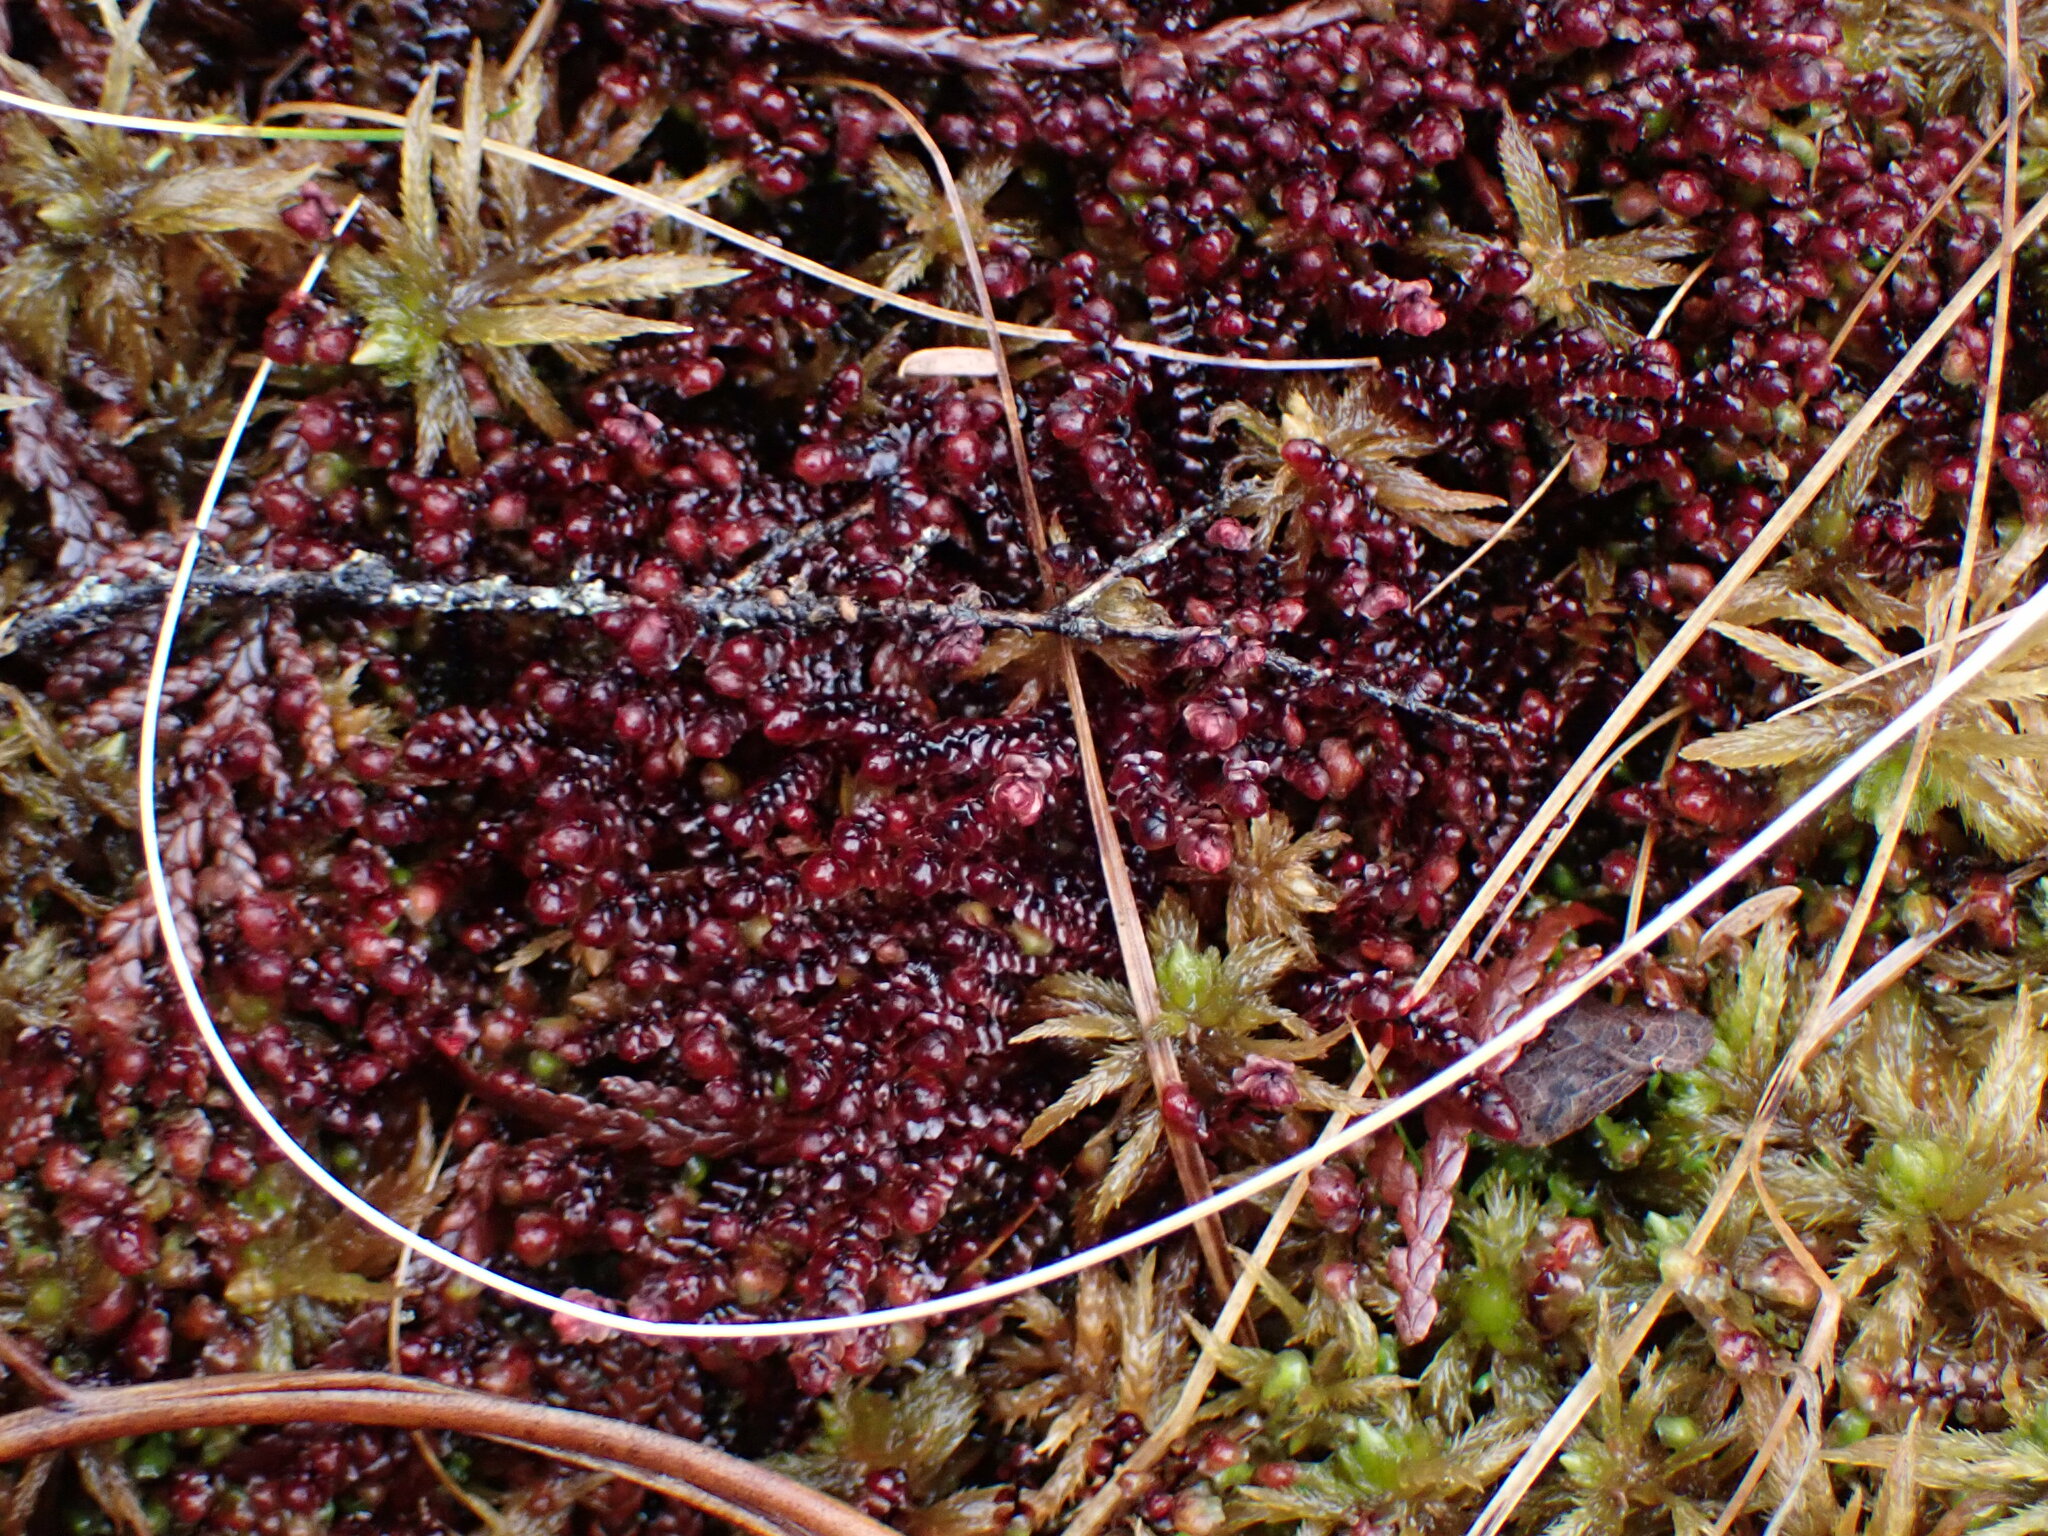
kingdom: Plantae
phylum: Marchantiophyta
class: Jungermanniopsida
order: Jungermanniales
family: Scapaniaceae
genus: Scapania
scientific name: Scapania undulata
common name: Water earwort
